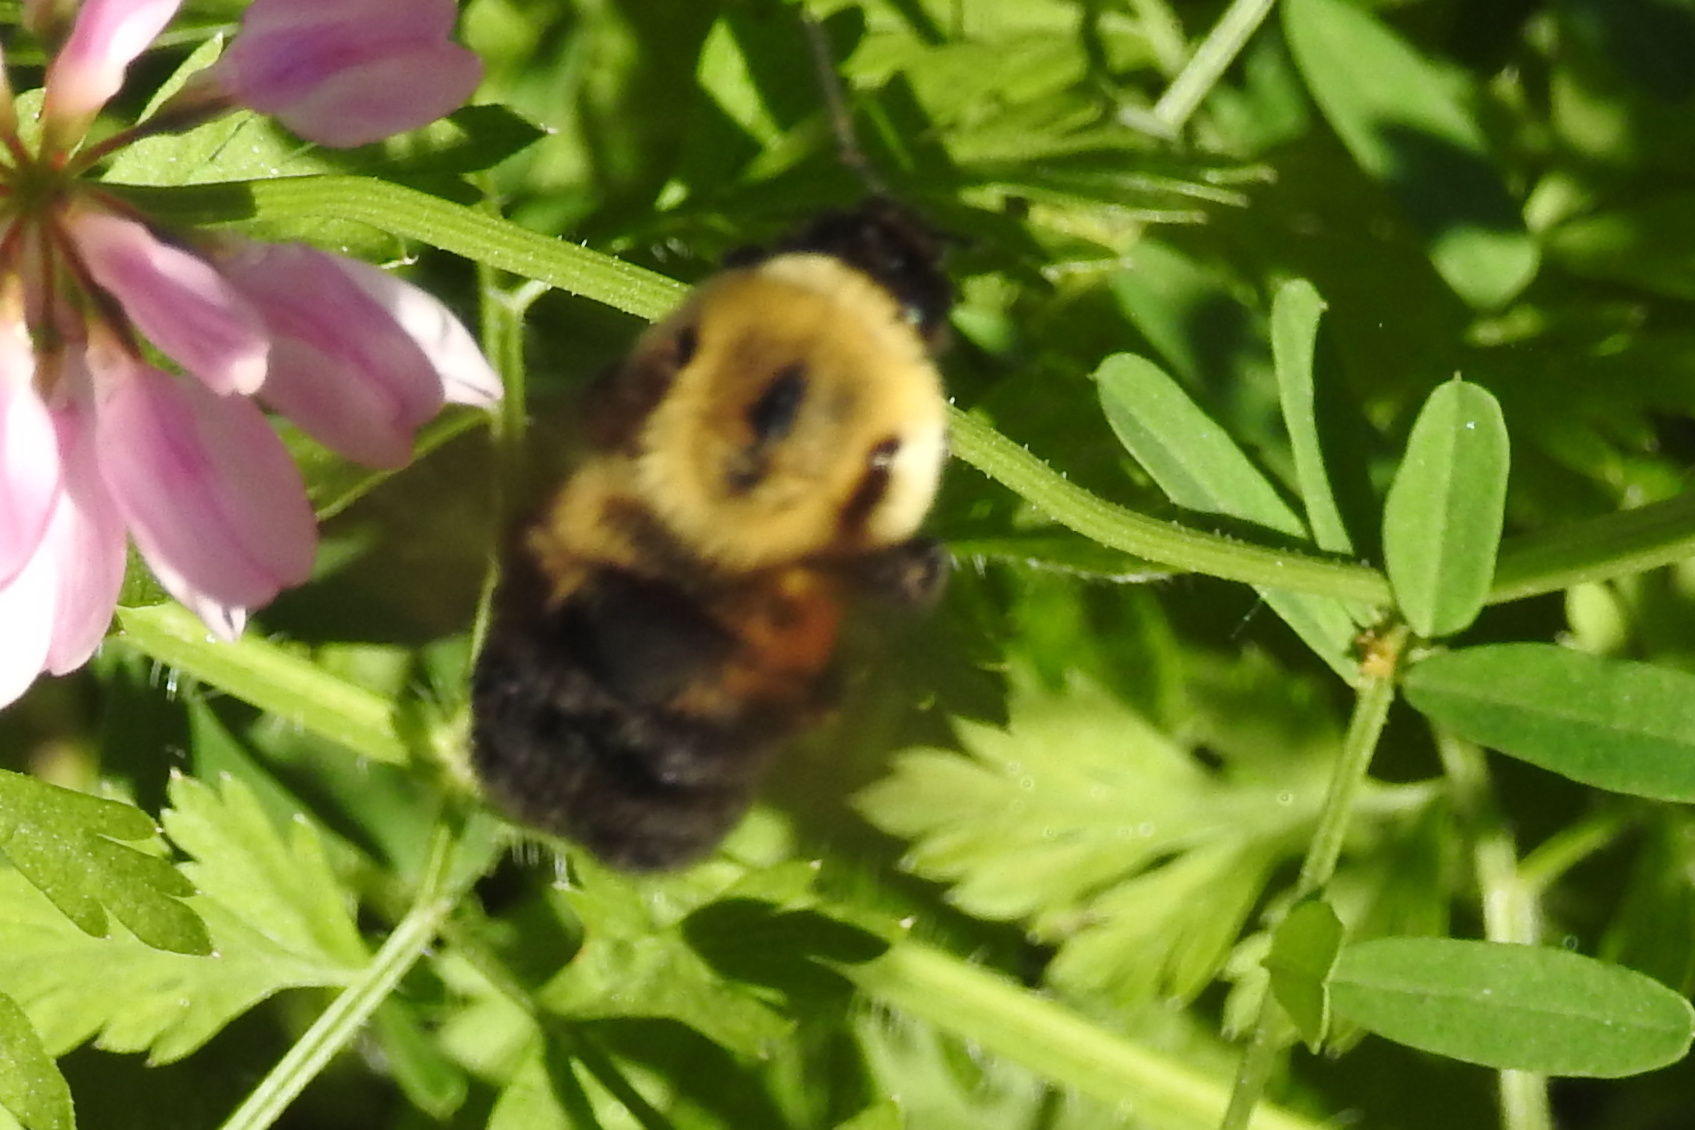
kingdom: Animalia
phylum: Arthropoda
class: Insecta
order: Hymenoptera
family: Apidae
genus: Bombus
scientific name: Bombus griseocollis
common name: Brown-belted bumble bee
